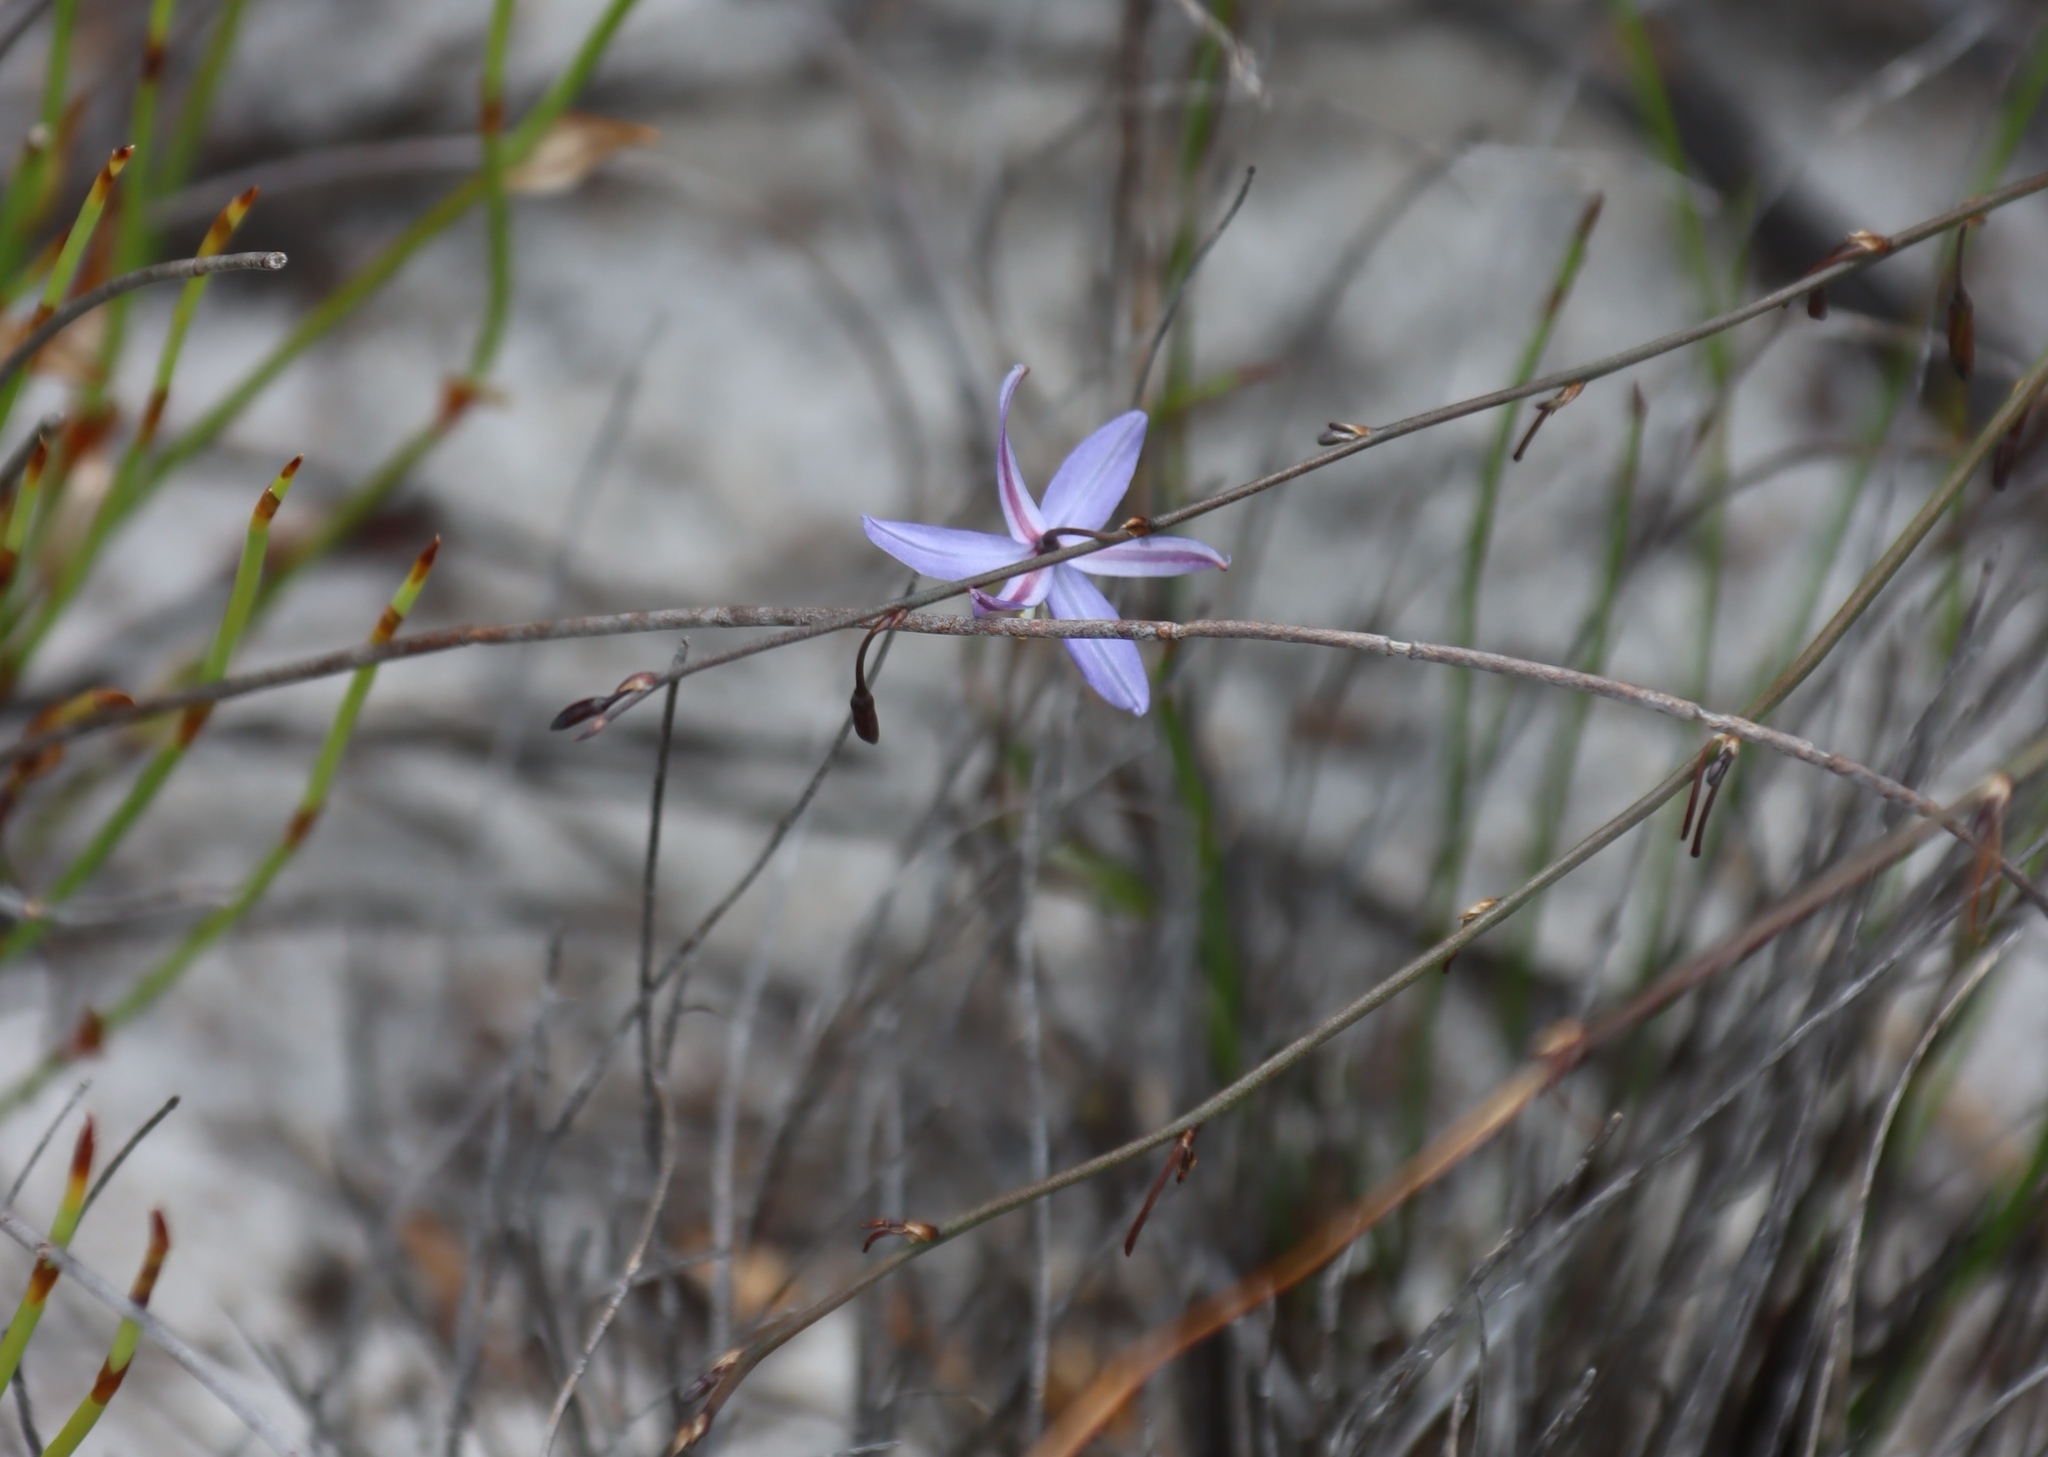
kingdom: Plantae
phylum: Tracheophyta
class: Liliopsida
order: Asparagales
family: Asphodelaceae
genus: Caesia
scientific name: Caesia contorta
